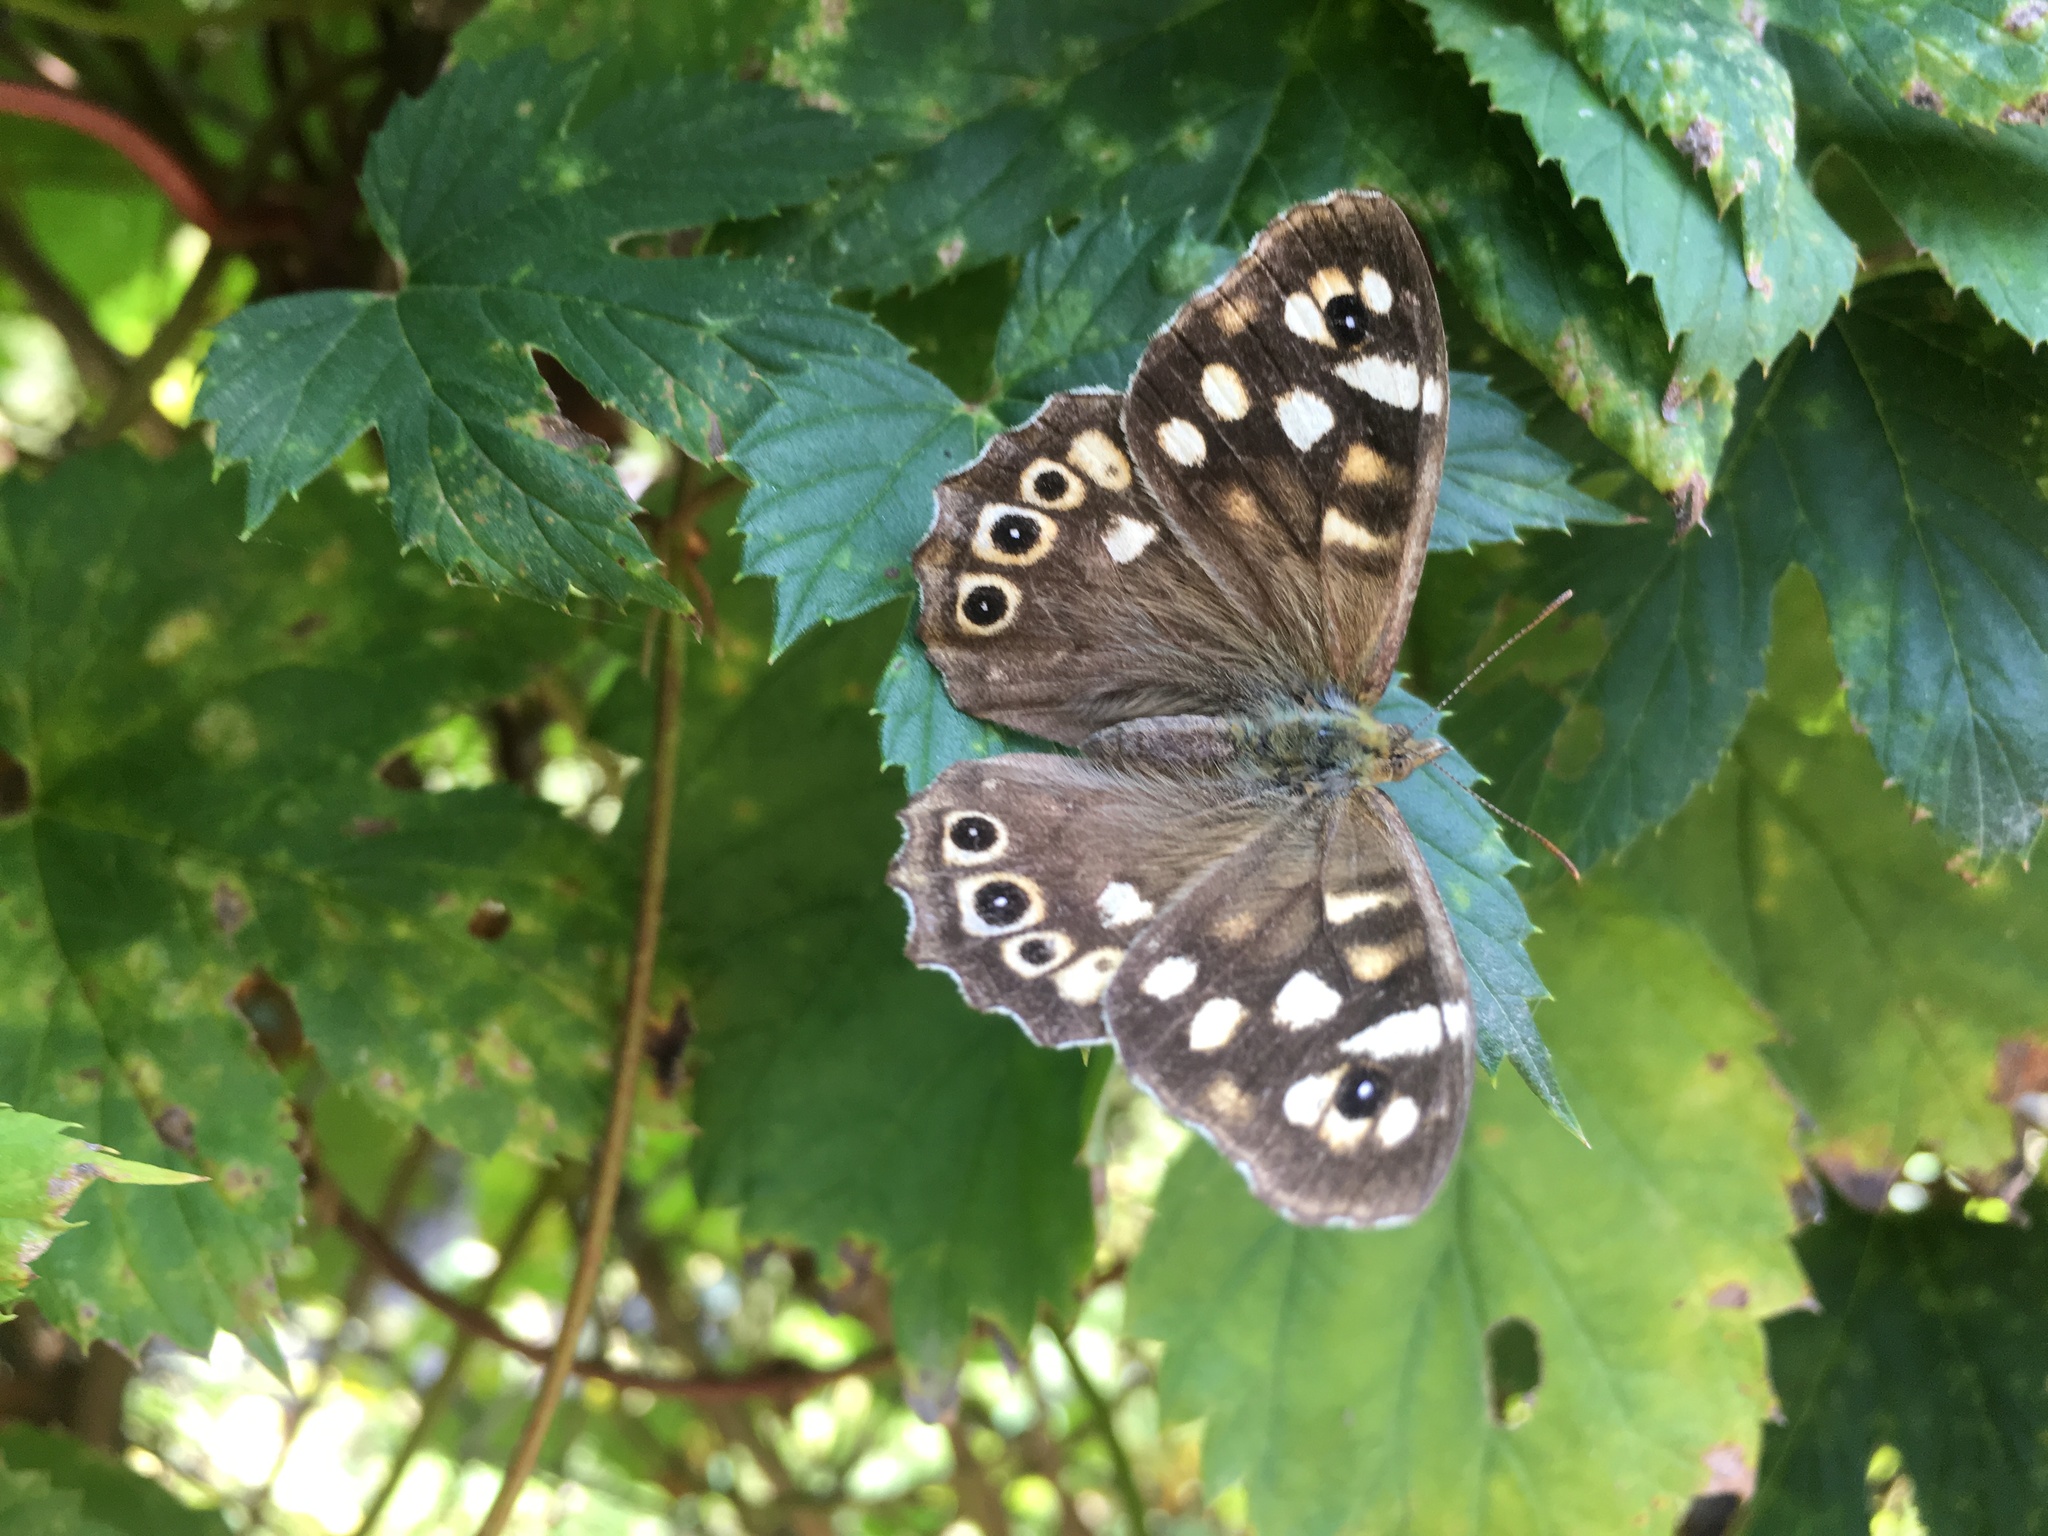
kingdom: Animalia
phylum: Arthropoda
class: Insecta
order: Lepidoptera
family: Nymphalidae
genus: Pararge
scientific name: Pararge aegeria
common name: Speckled wood
